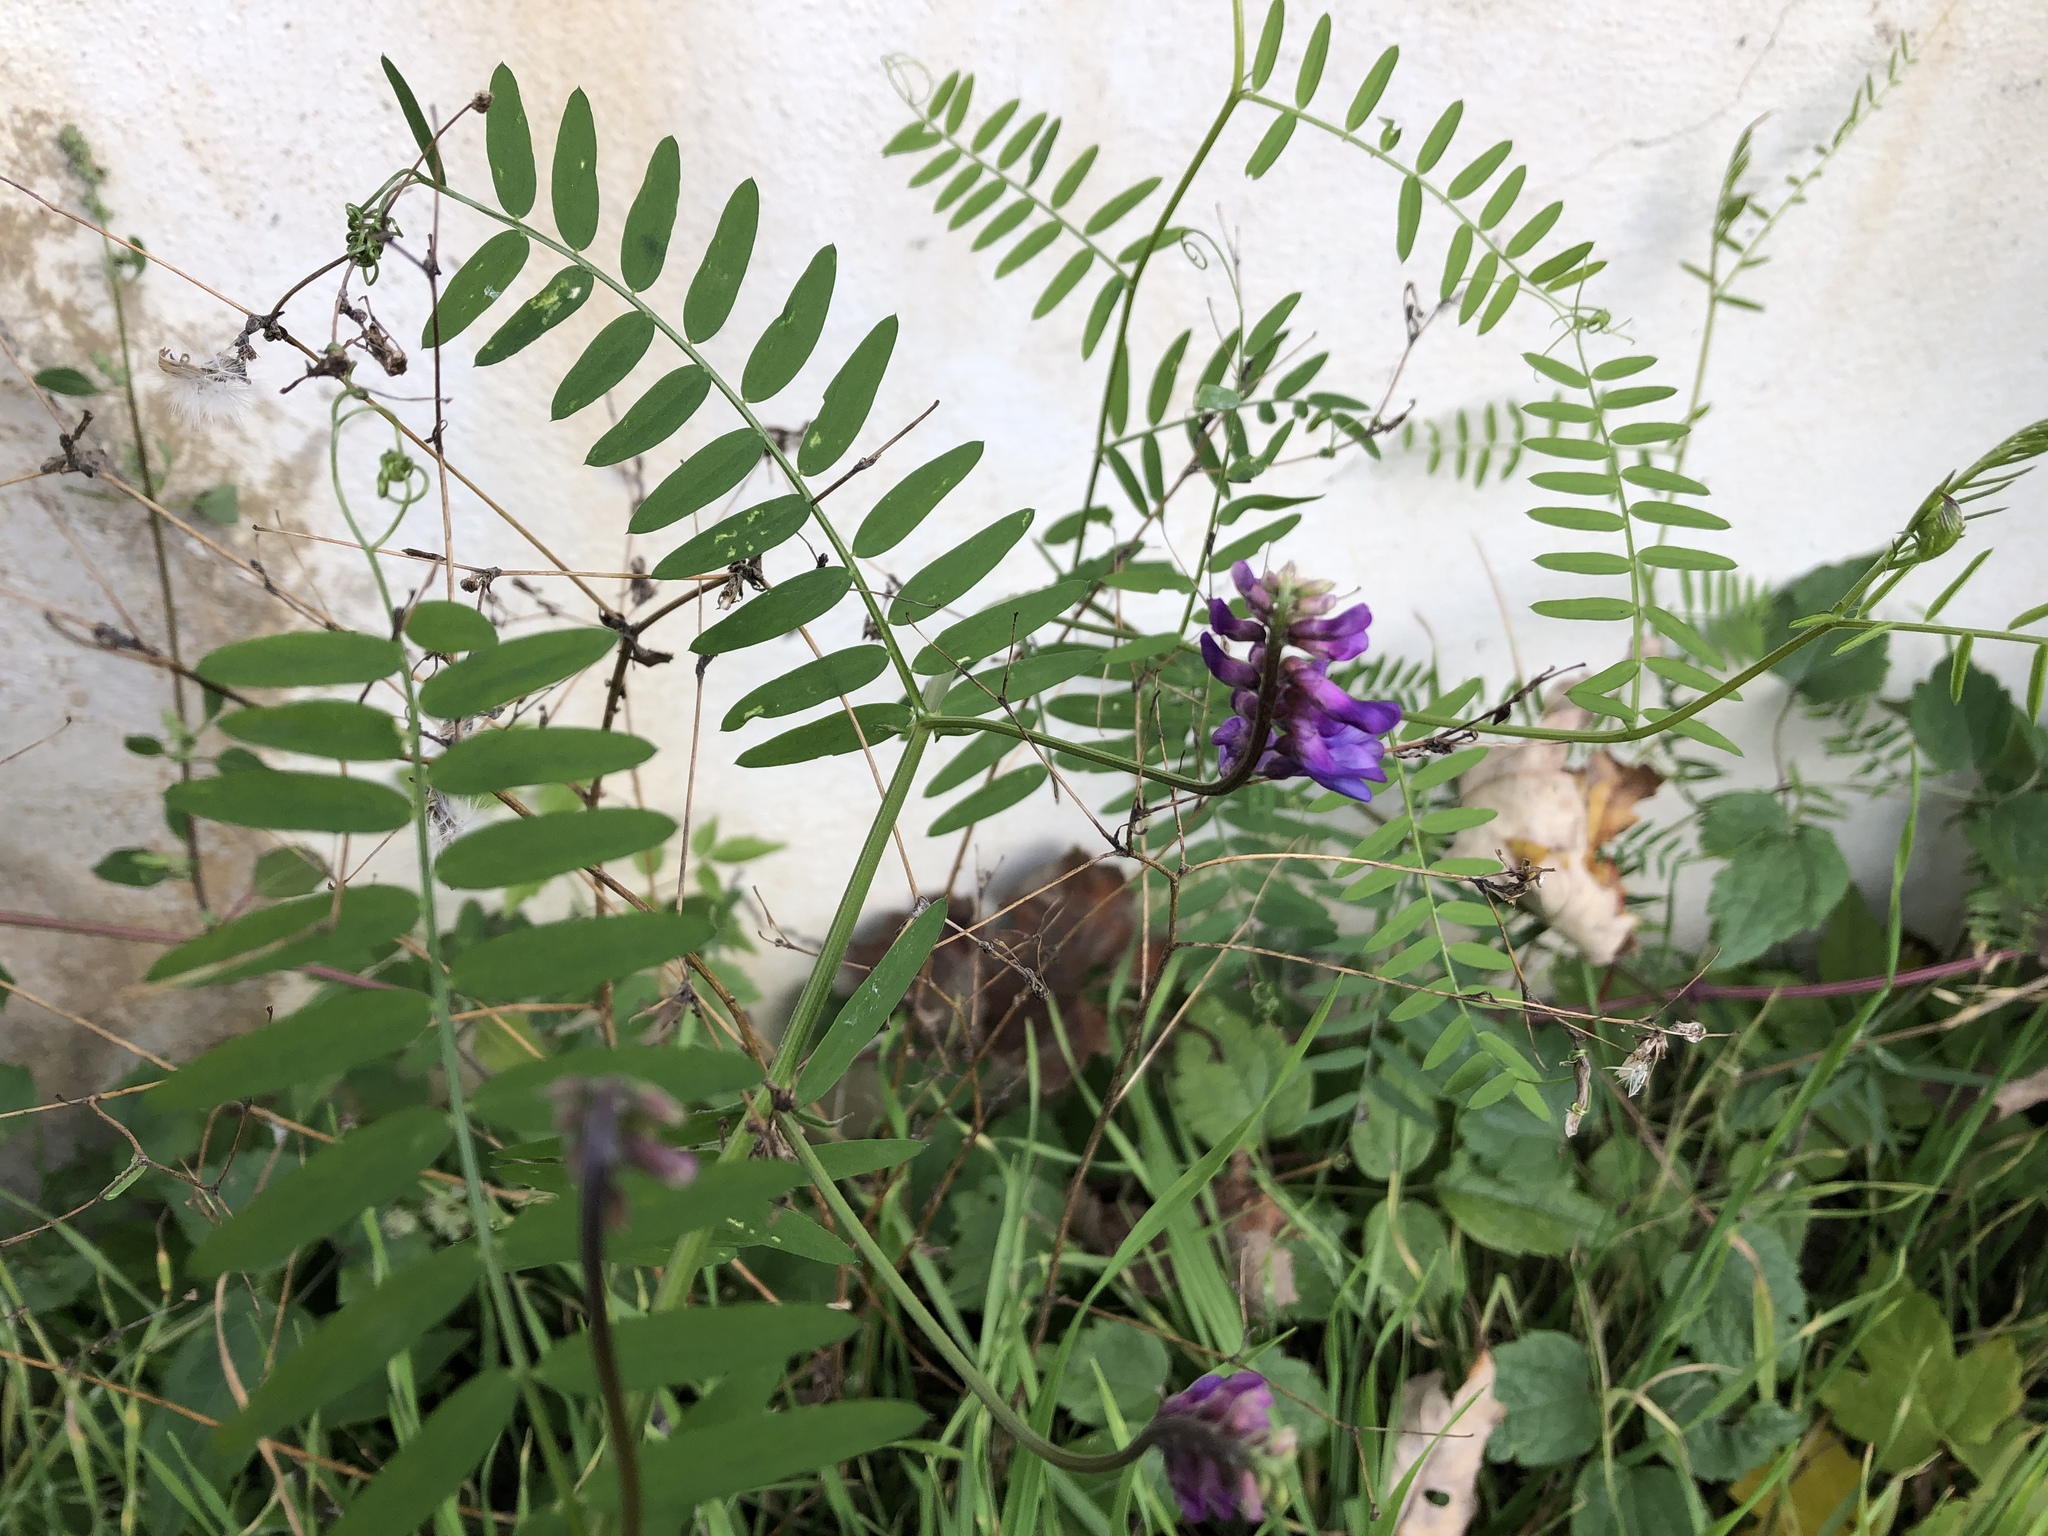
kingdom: Plantae
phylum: Tracheophyta
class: Magnoliopsida
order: Fabales
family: Fabaceae
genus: Vicia
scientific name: Vicia cracca
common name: Bird vetch
